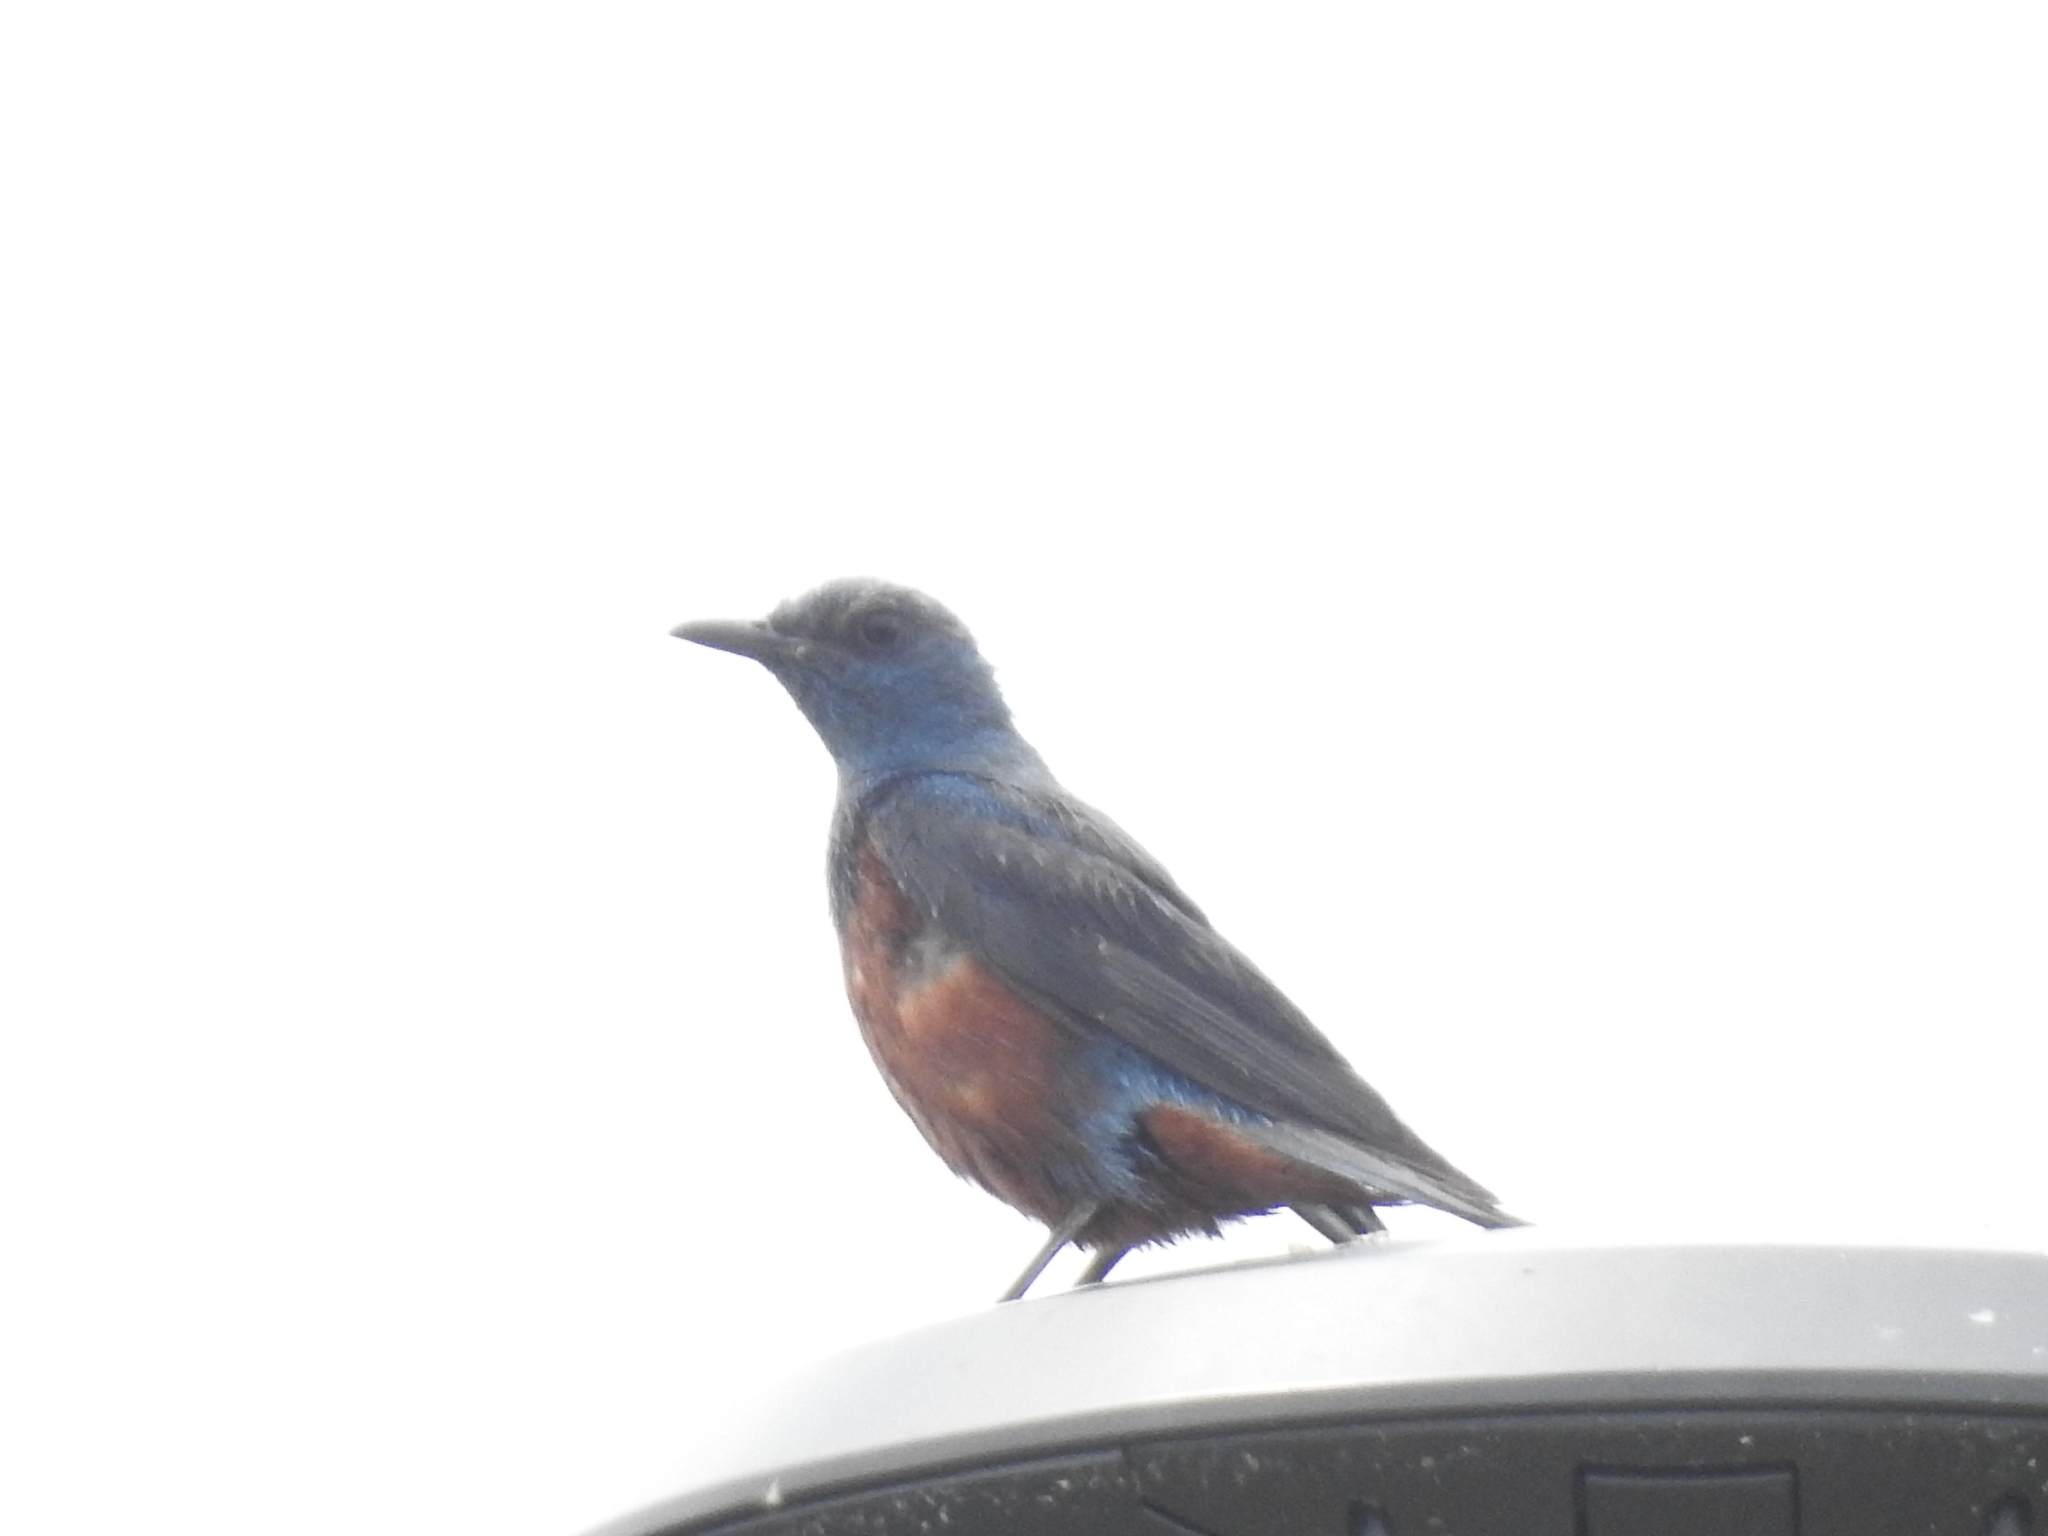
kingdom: Animalia
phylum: Chordata
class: Aves
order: Passeriformes
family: Muscicapidae
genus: Monticola
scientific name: Monticola solitarius
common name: Blue rock thrush
